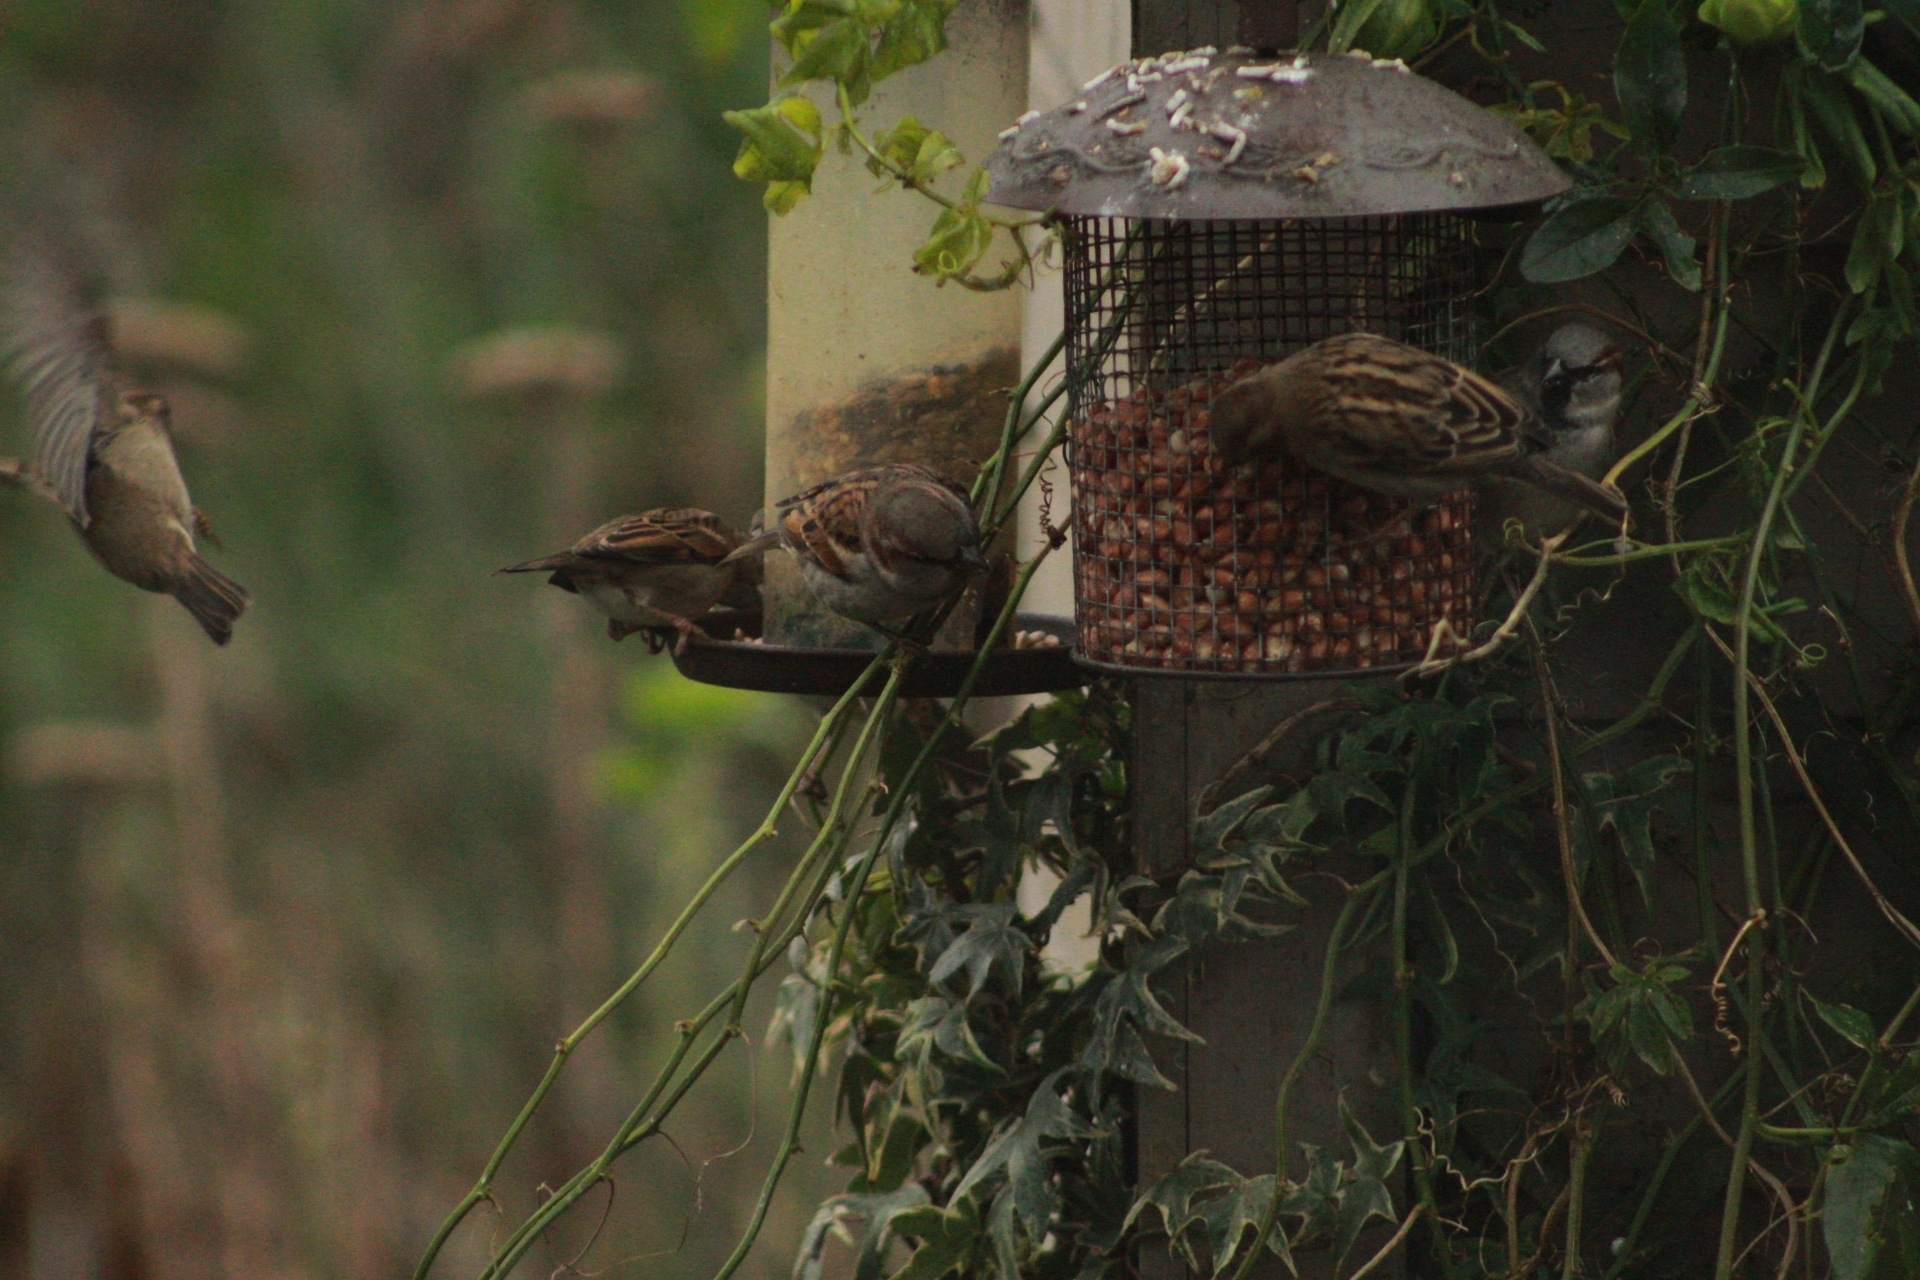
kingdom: Animalia
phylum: Chordata
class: Aves
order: Passeriformes
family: Passeridae
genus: Passer
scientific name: Passer domesticus
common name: House sparrow
